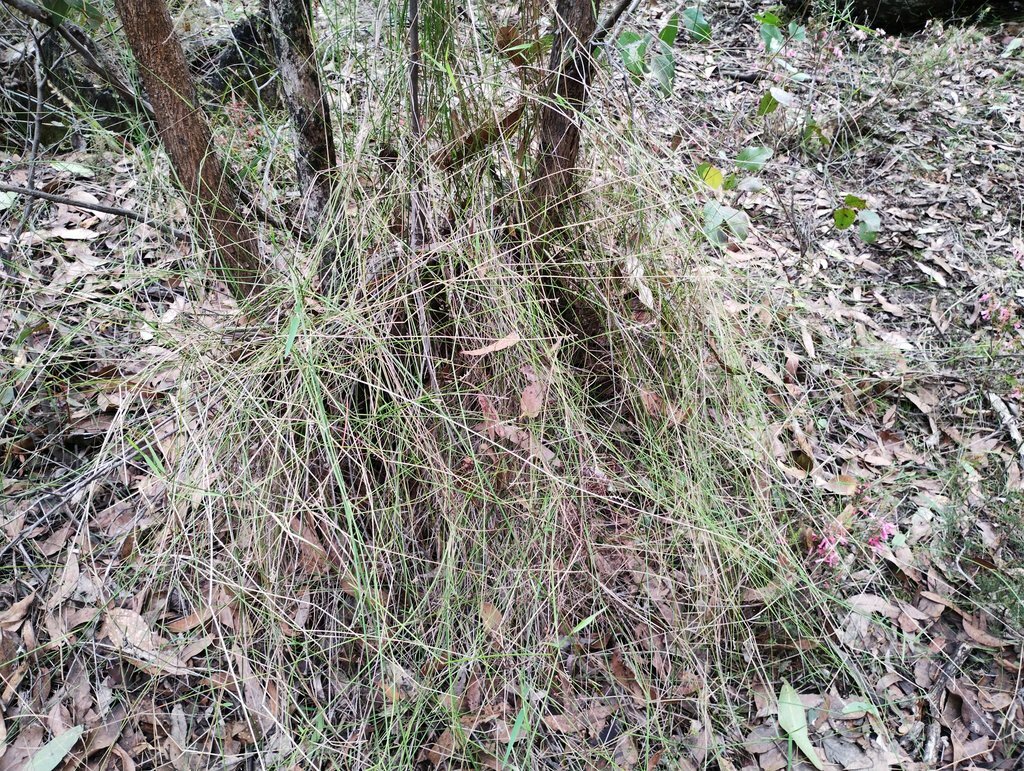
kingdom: Plantae
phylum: Tracheophyta
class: Liliopsida
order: Poales
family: Poaceae
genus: Tetrarrhena
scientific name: Tetrarrhena juncea
